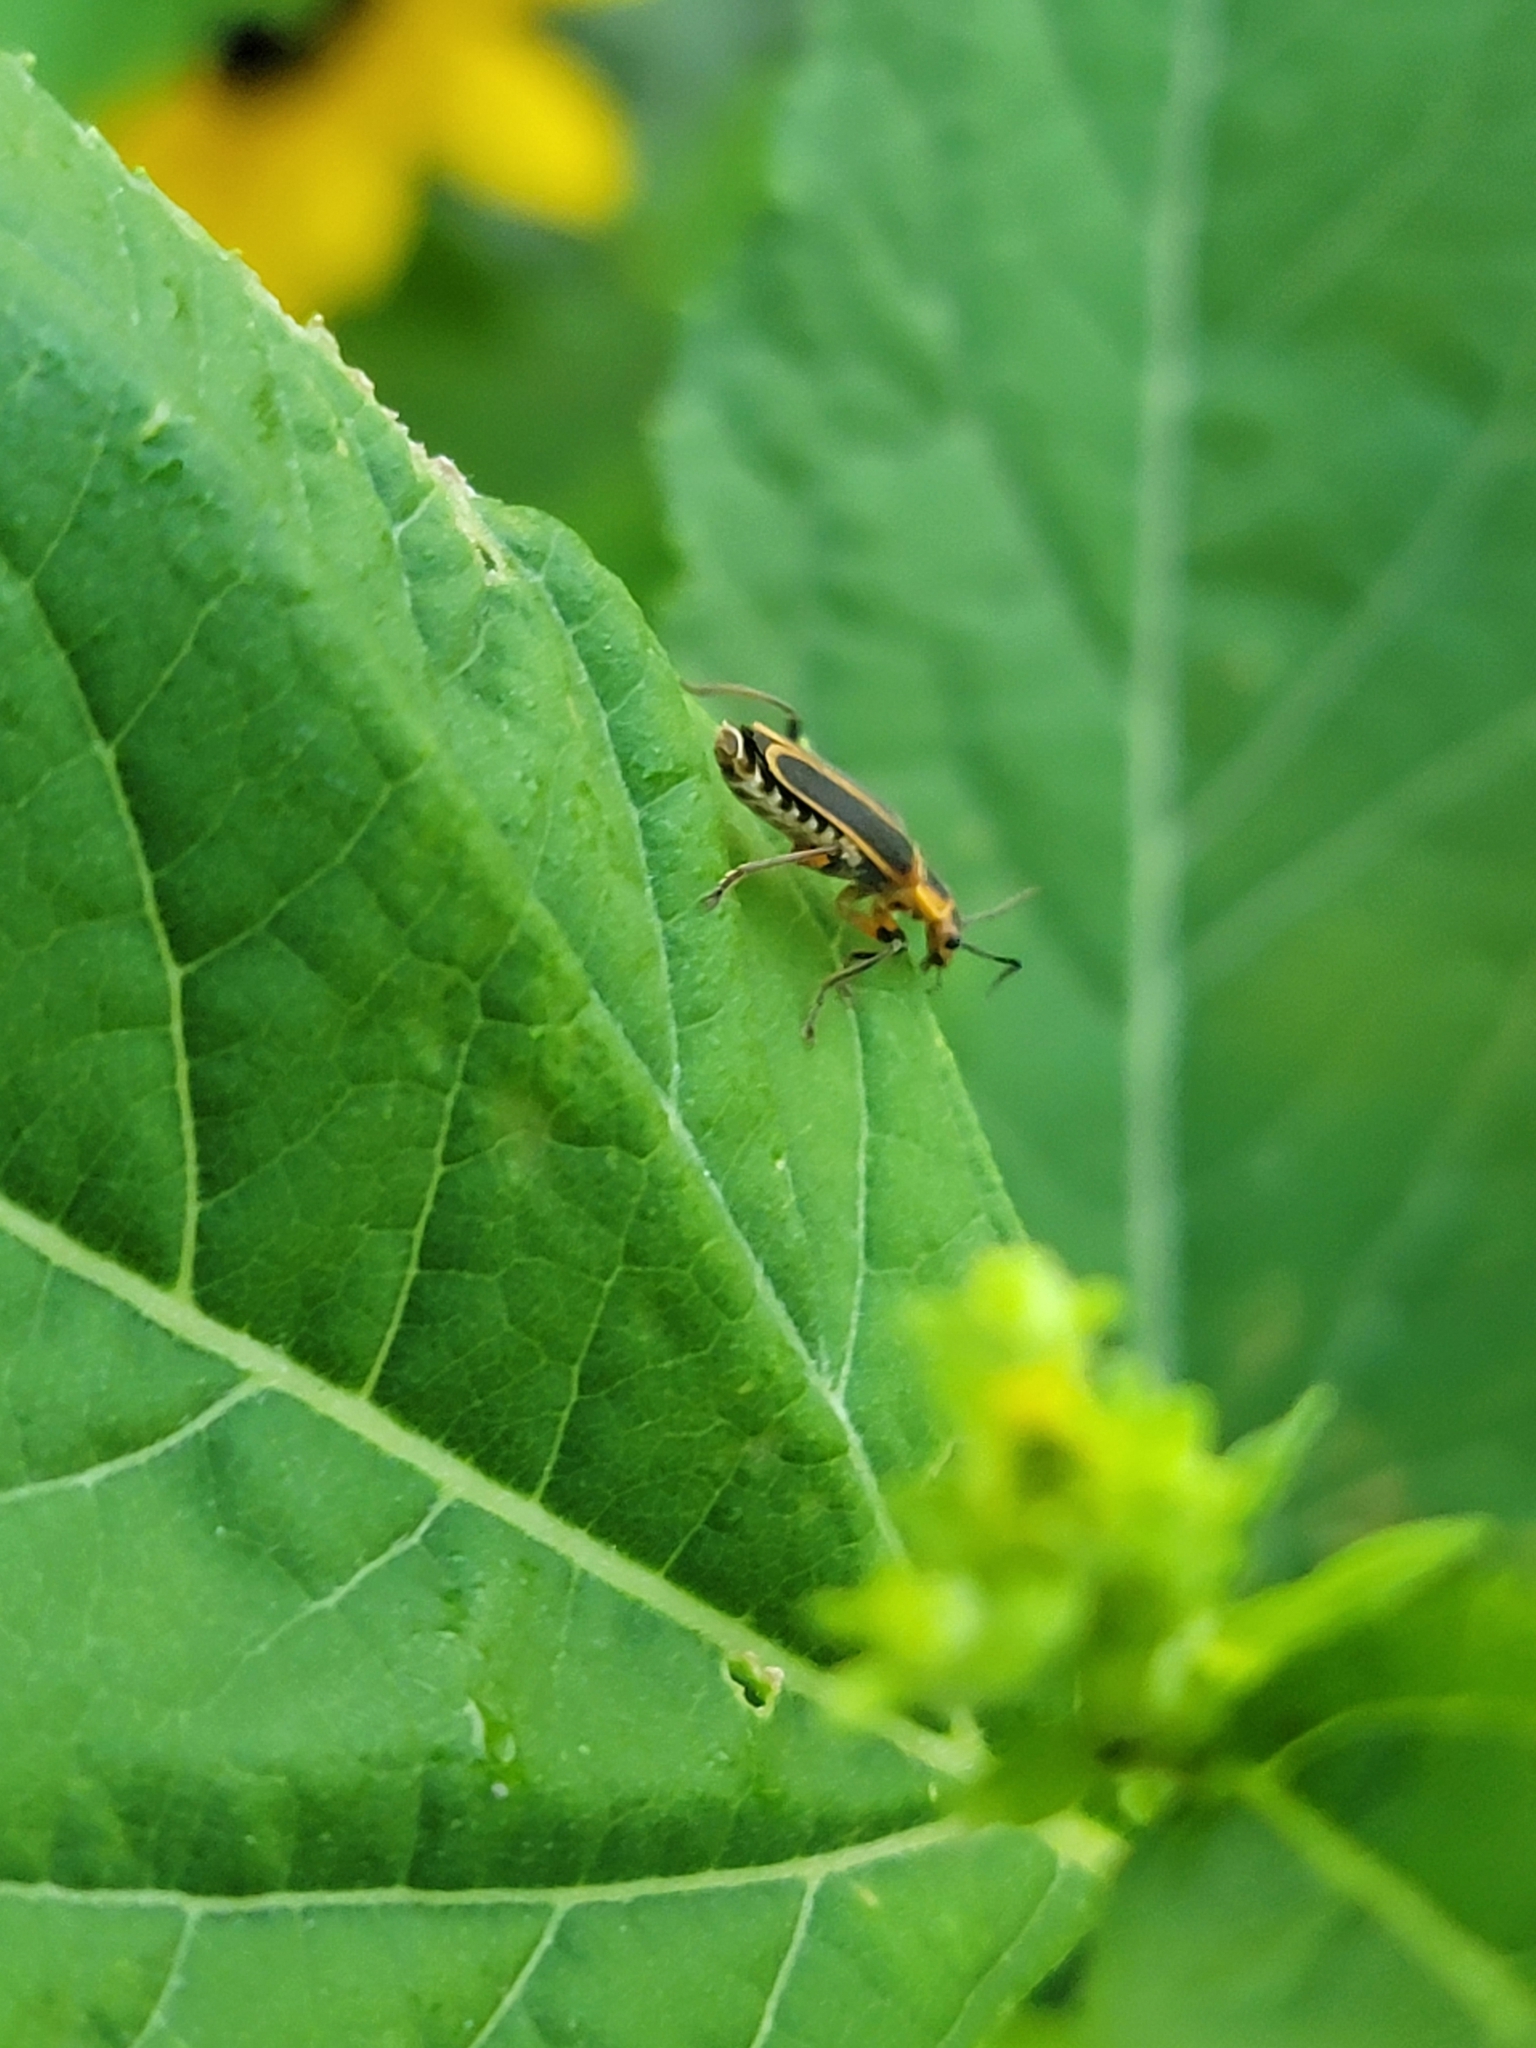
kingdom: Animalia
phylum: Arthropoda
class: Insecta
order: Coleoptera
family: Cantharidae
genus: Chauliognathus
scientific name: Chauliognathus marginatus
